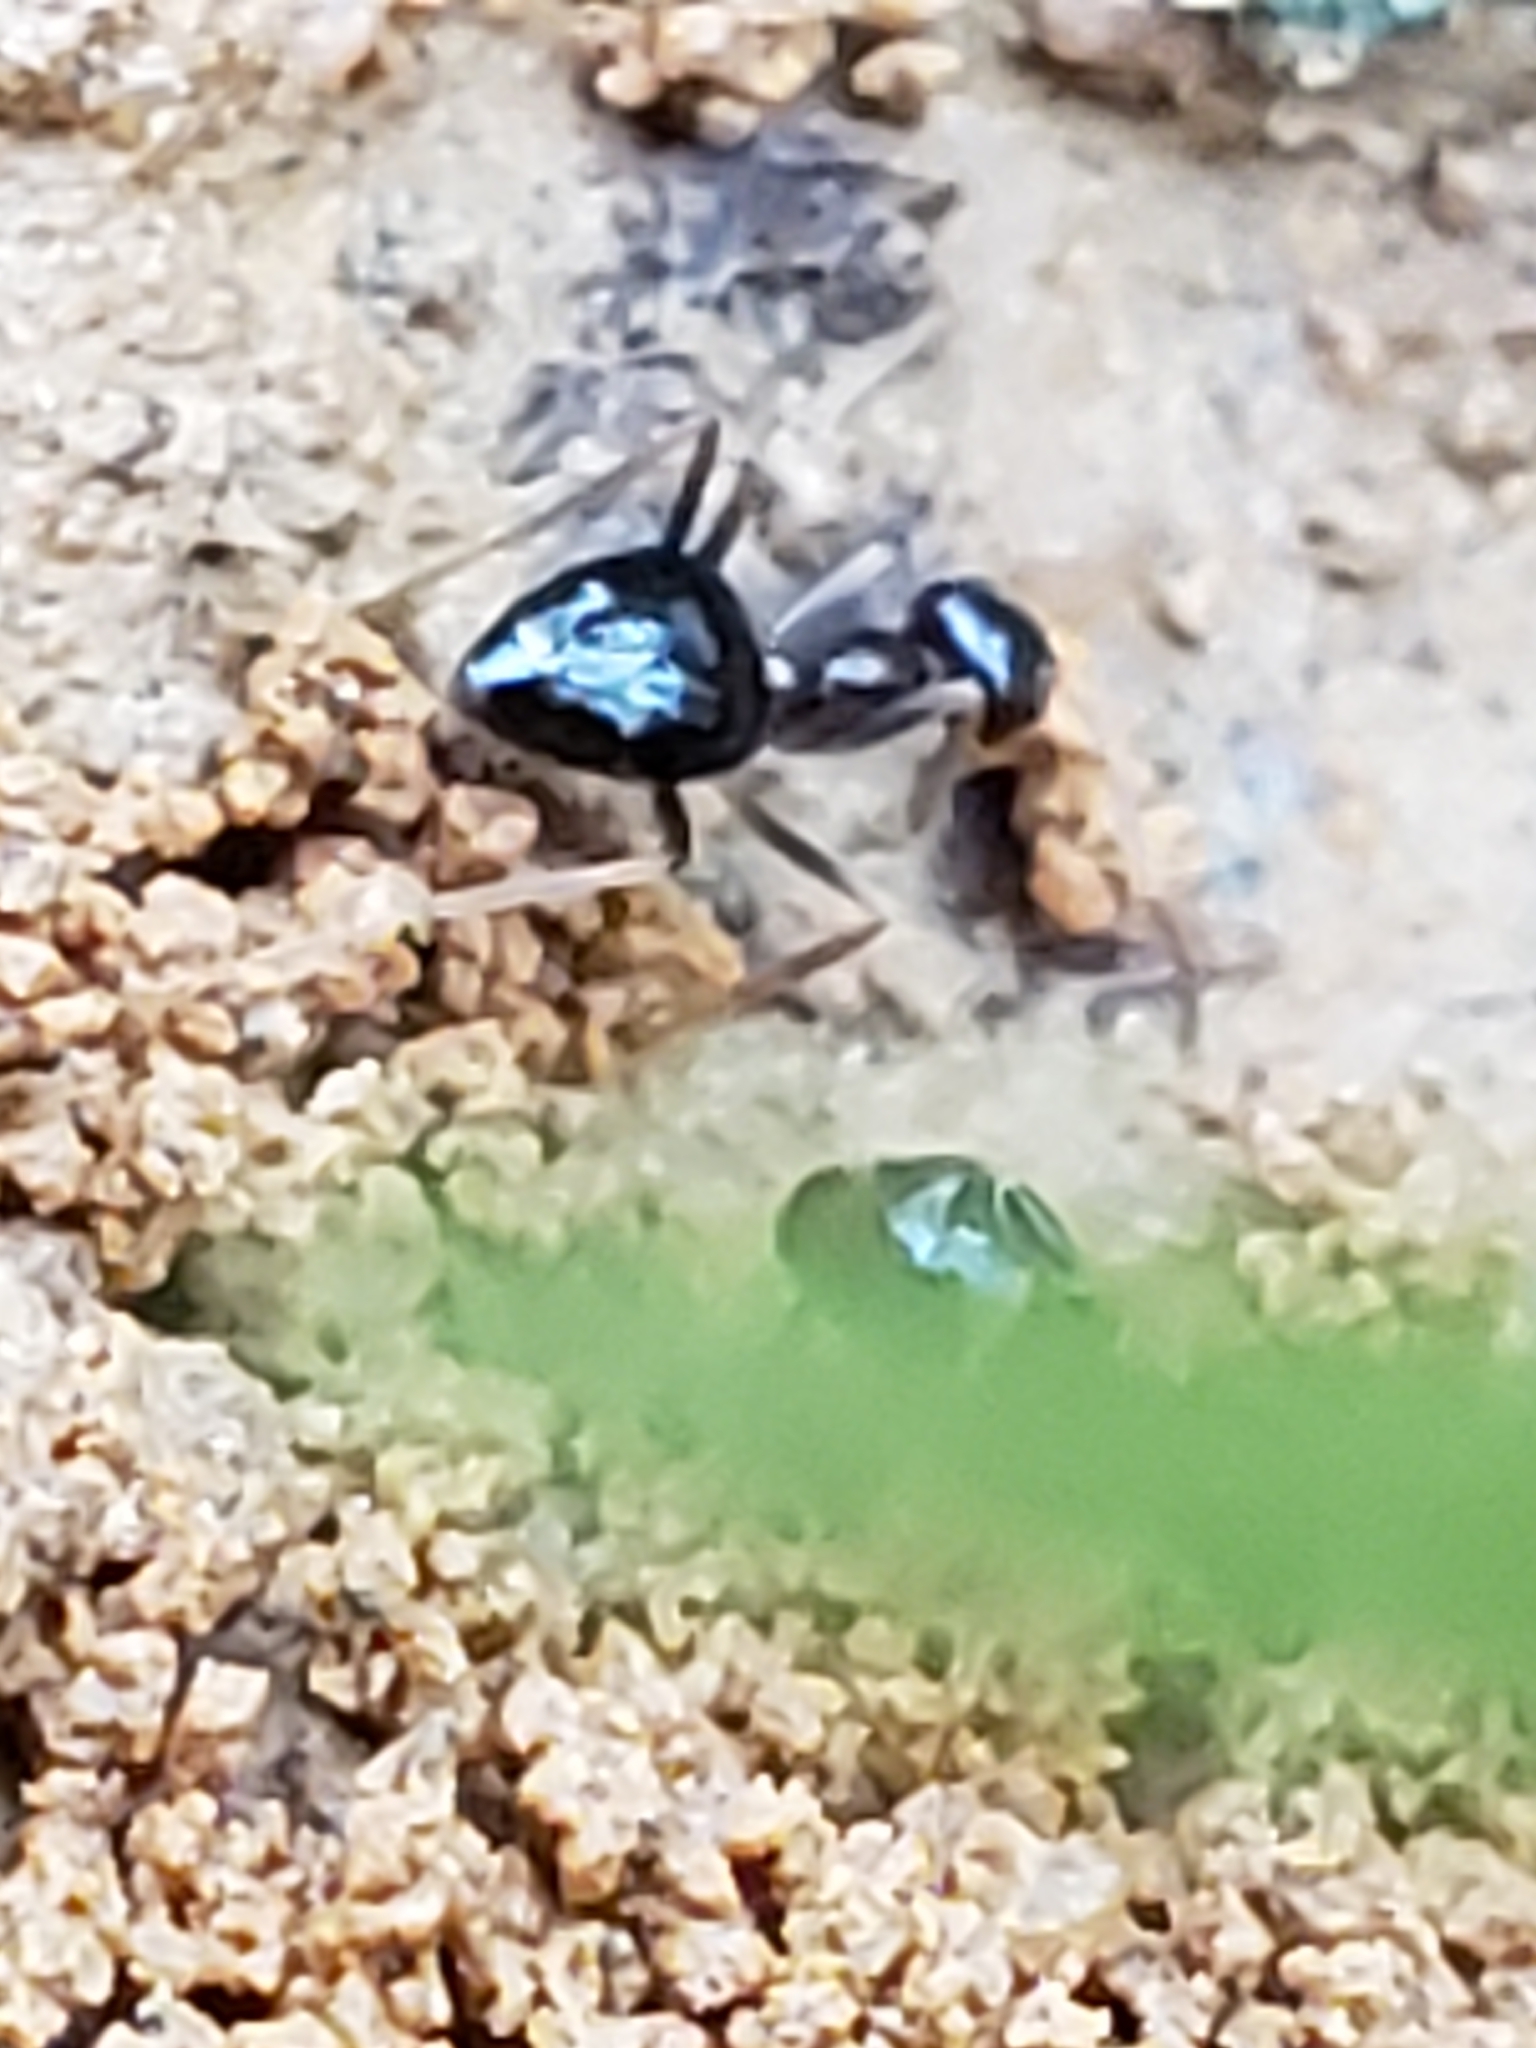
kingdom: Animalia
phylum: Arthropoda
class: Insecta
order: Hymenoptera
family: Formicidae
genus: Prenolepis
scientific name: Prenolepis imparis
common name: Small honey ant
